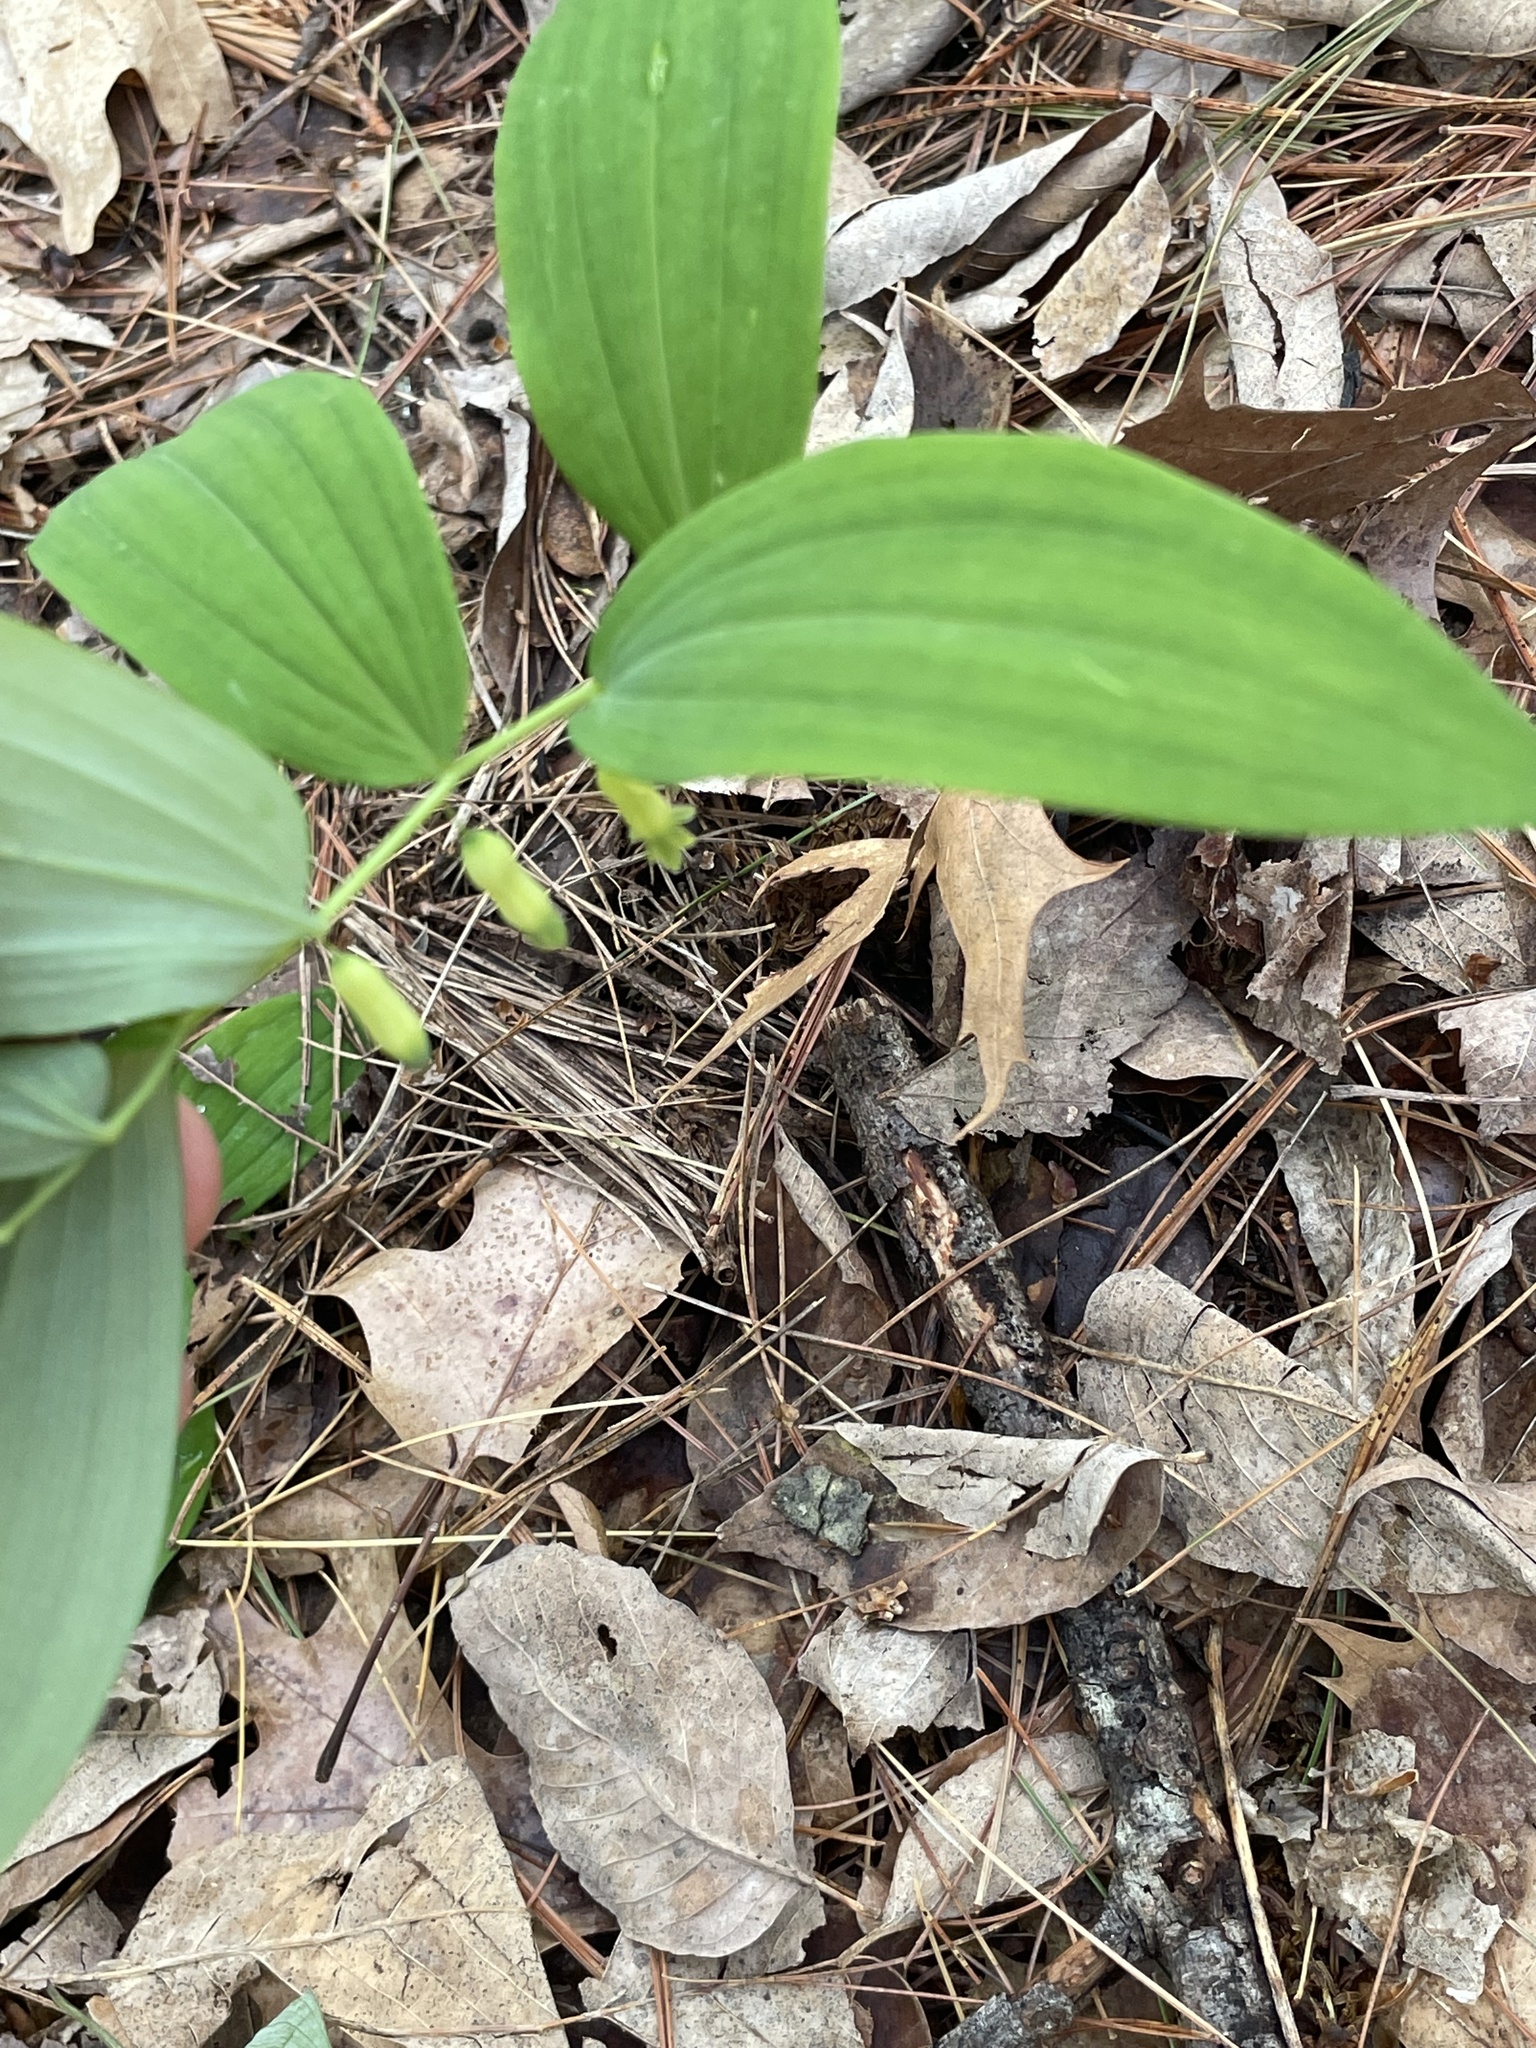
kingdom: Plantae
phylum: Tracheophyta
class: Liliopsida
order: Asparagales
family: Asparagaceae
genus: Polygonatum
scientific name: Polygonatum pubescens
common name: Downy solomon's seal
